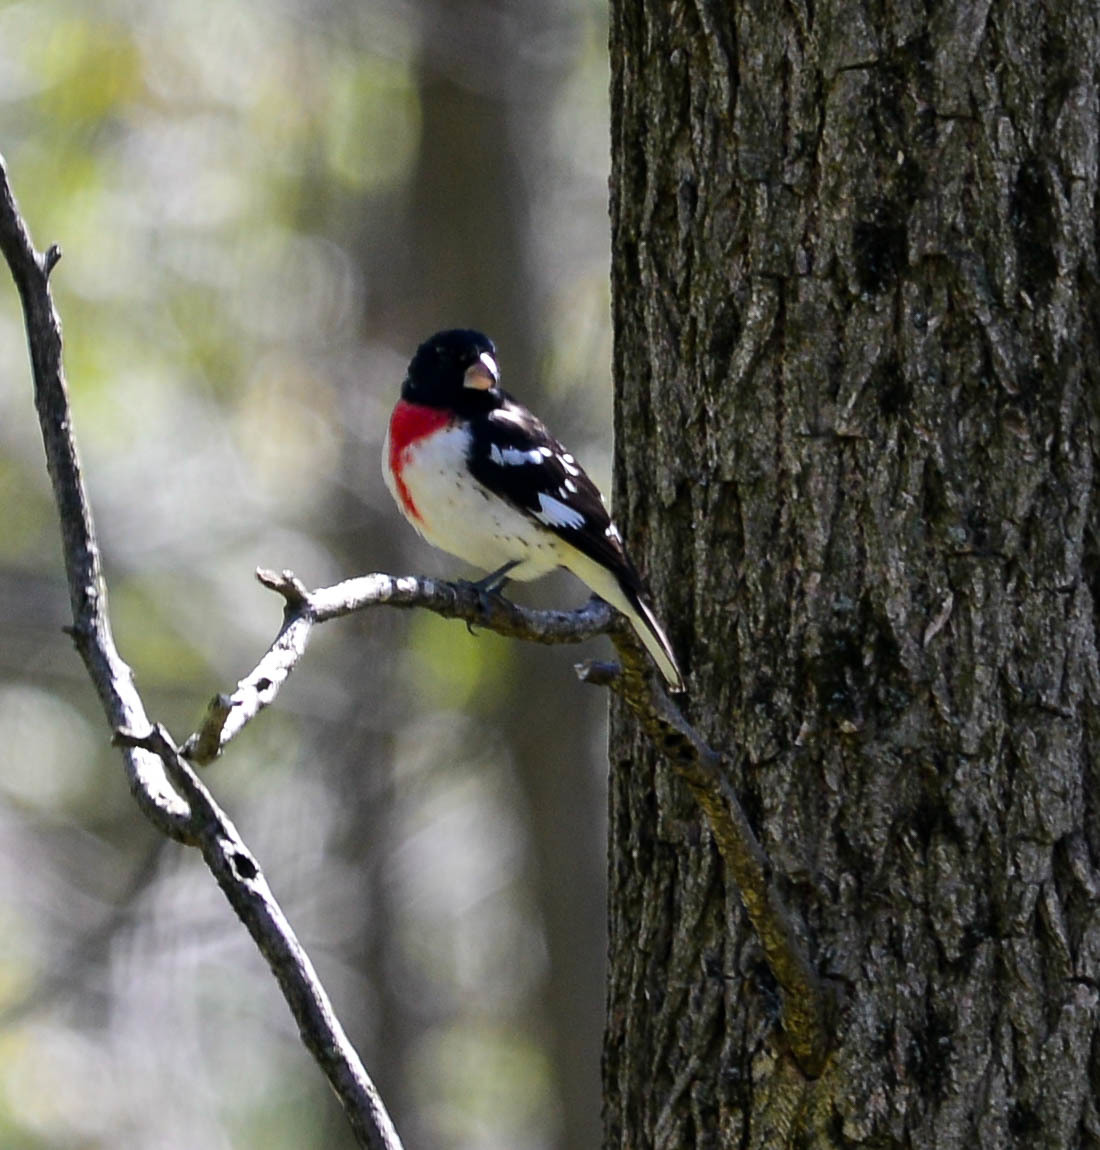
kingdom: Animalia
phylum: Chordata
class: Aves
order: Passeriformes
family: Cardinalidae
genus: Pheucticus
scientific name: Pheucticus ludovicianus
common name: Rose-breasted grosbeak
